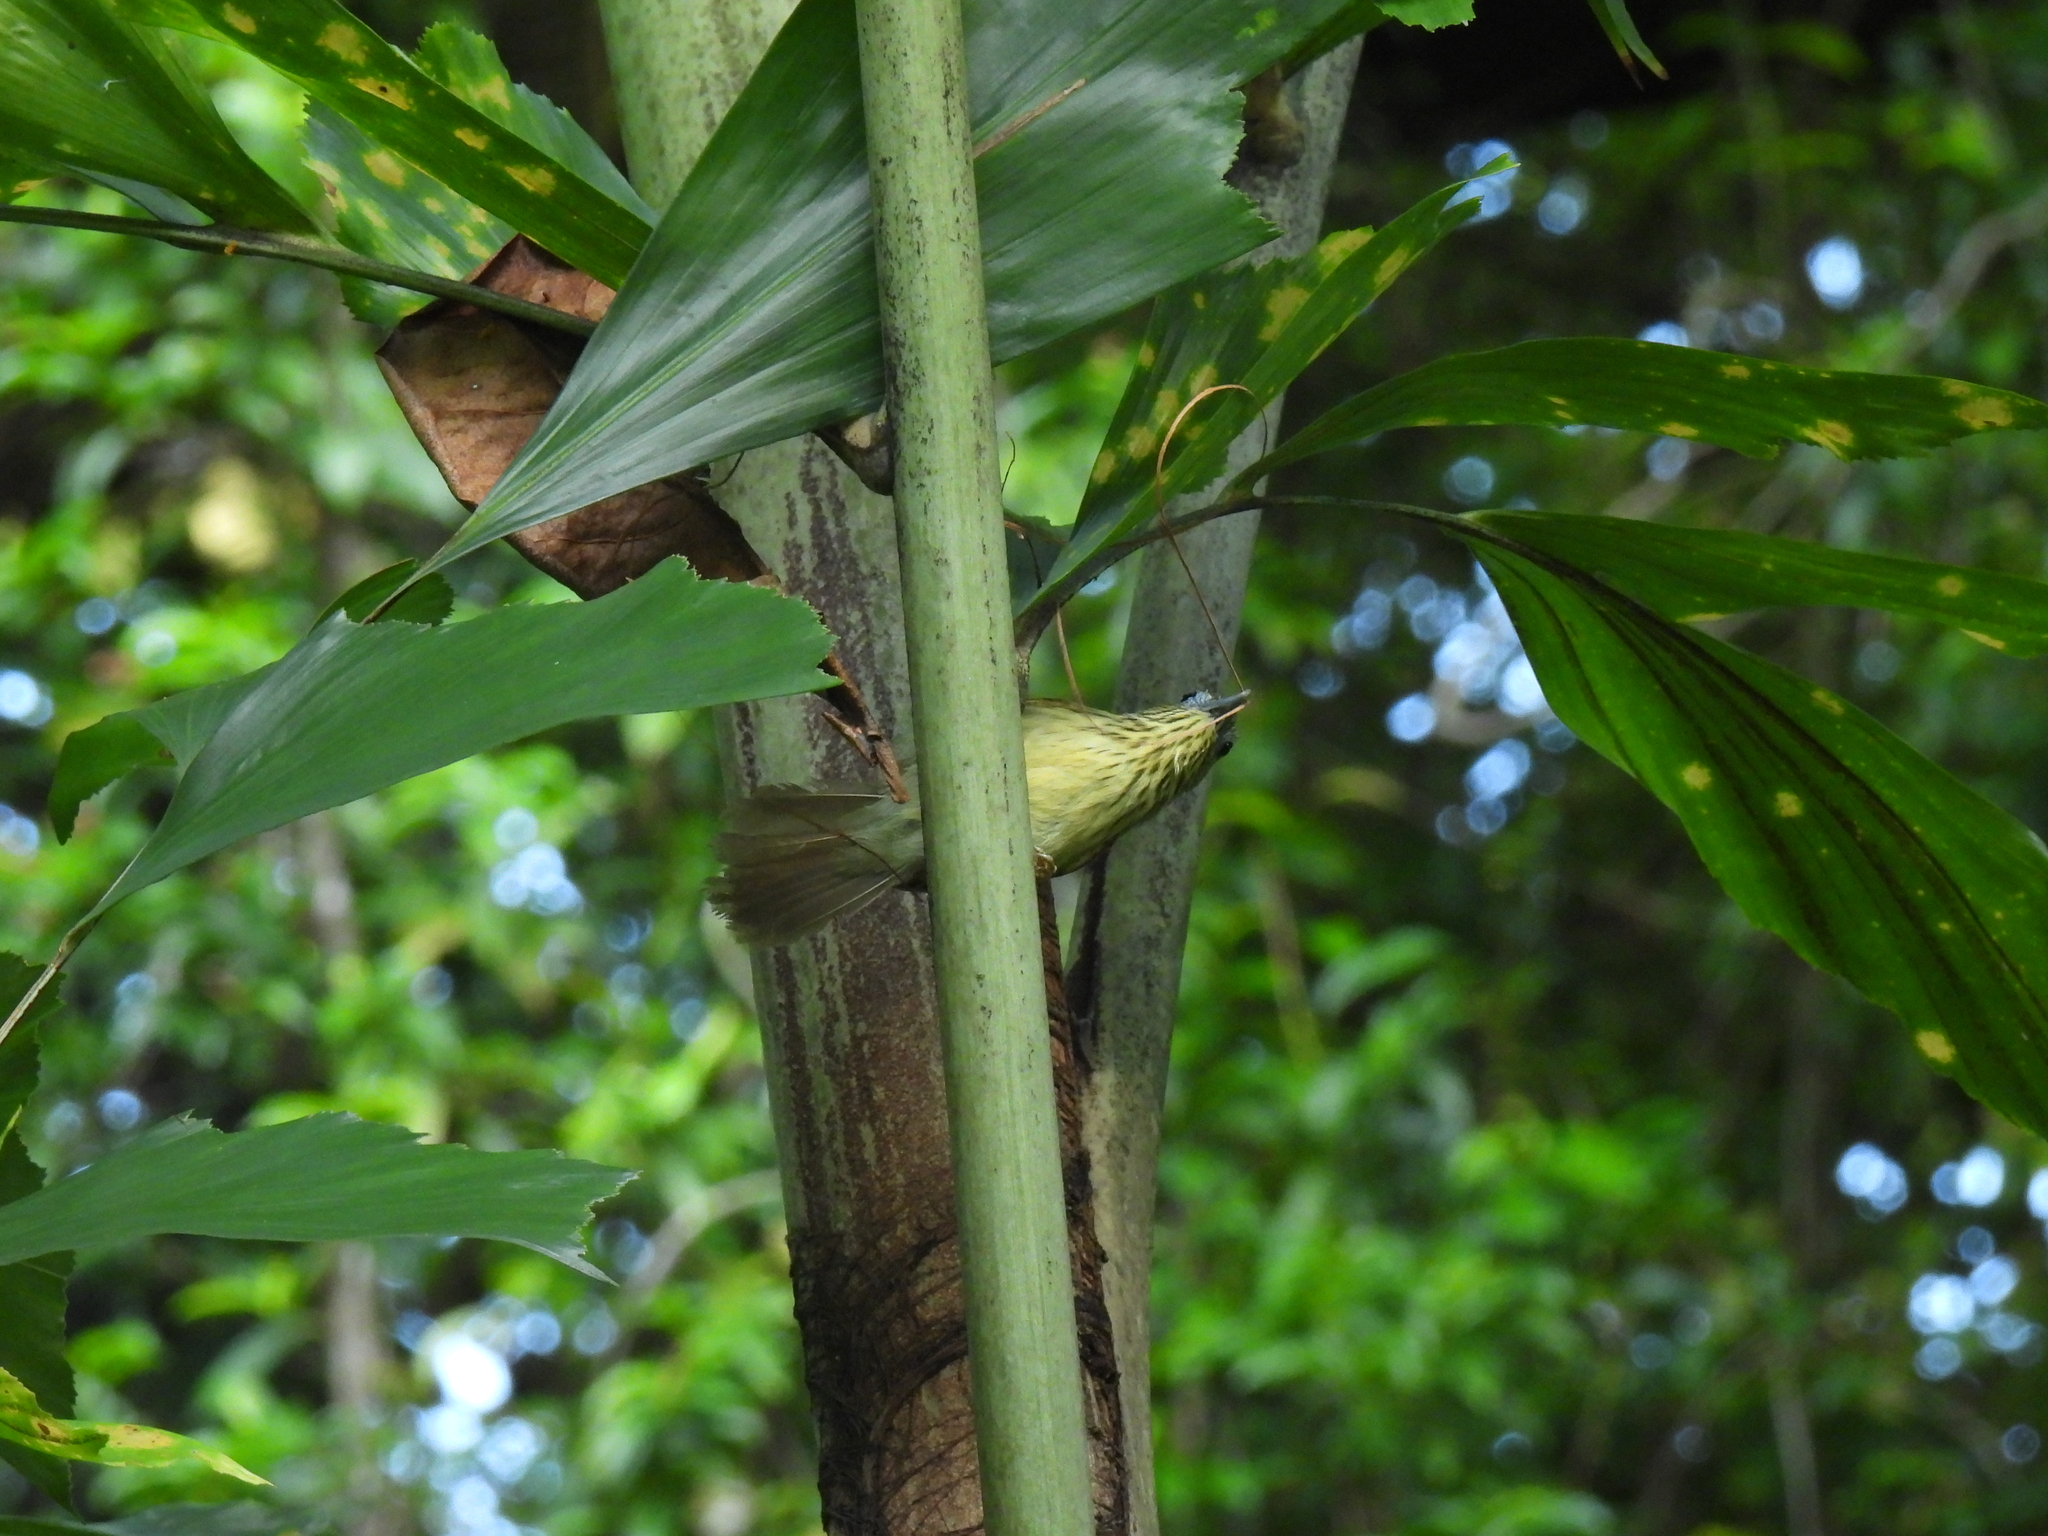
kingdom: Animalia
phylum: Chordata
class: Aves
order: Passeriformes
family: Timaliidae
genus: Macronus
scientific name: Macronus gularis
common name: Striped tit-babbler
